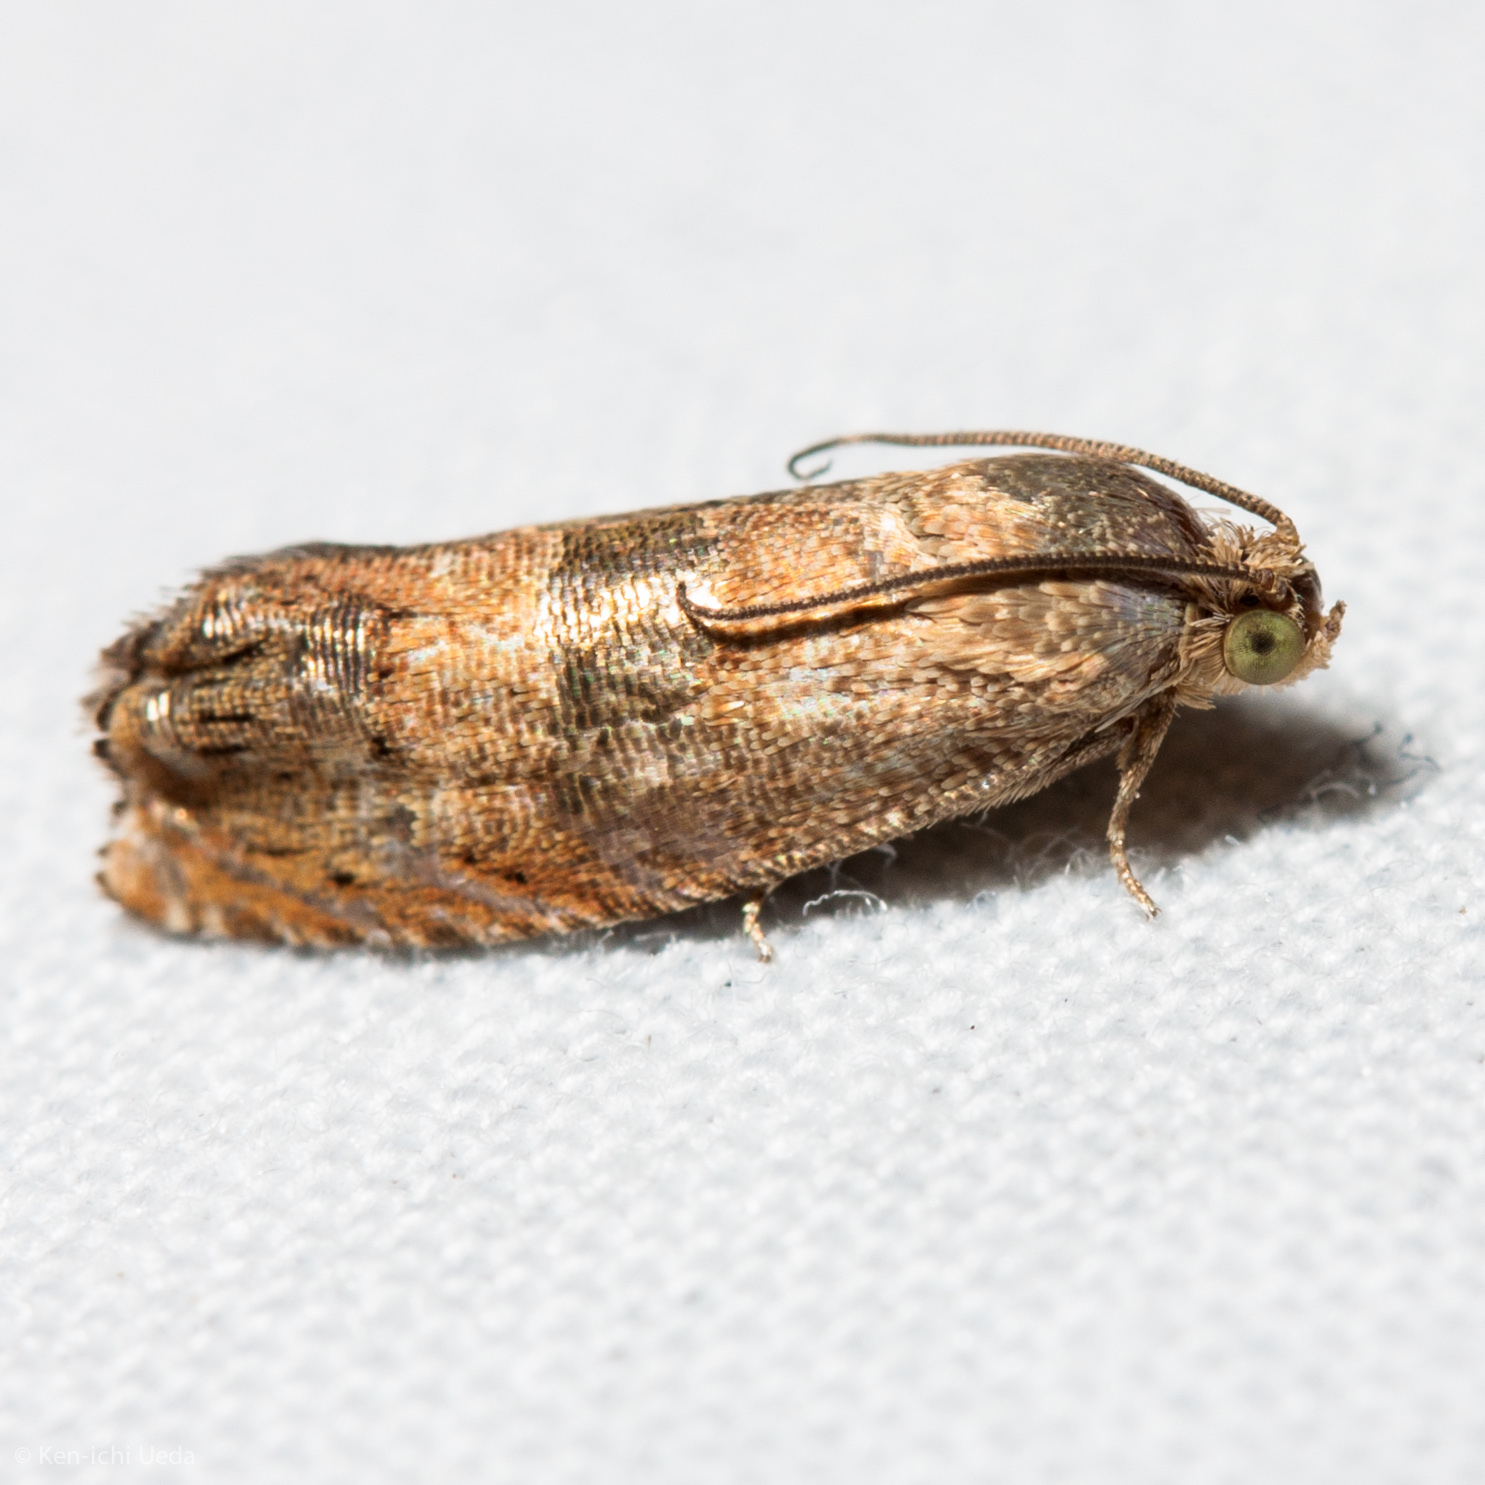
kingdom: Animalia
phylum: Arthropoda
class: Insecta
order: Lepidoptera
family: Tortricidae
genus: Cydia
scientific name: Cydia latiferreana
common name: Filbertworm moth
